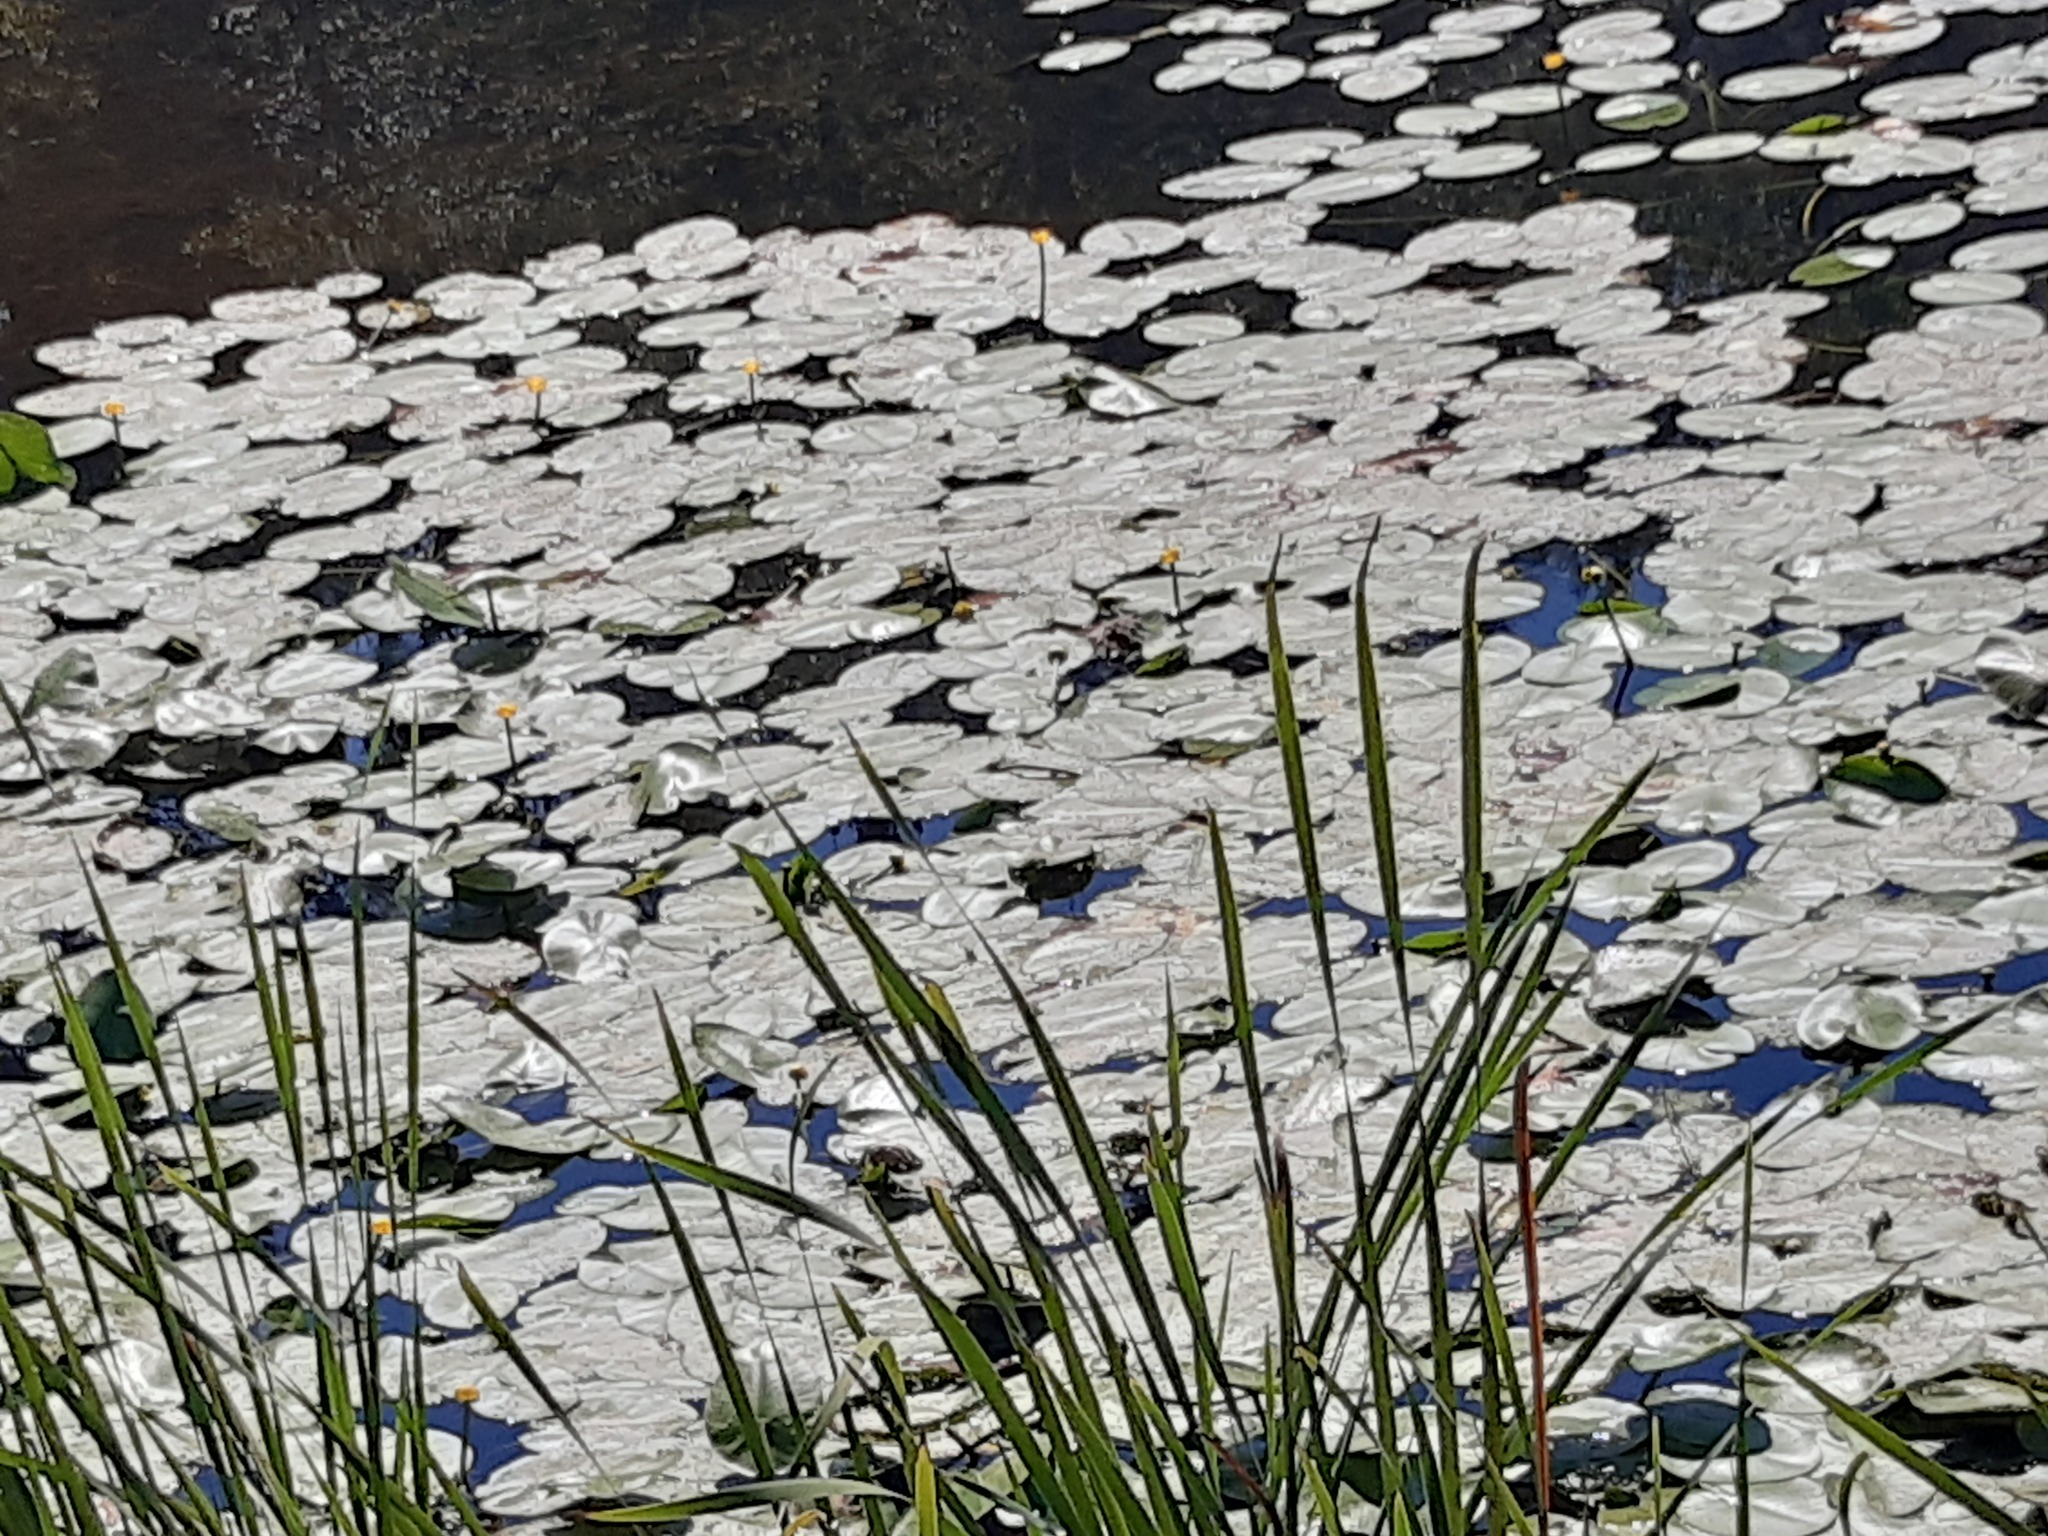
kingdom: Plantae
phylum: Tracheophyta
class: Magnoliopsida
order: Nymphaeales
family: Nymphaeaceae
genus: Nuphar
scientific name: Nuphar lutea
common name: Yellow water-lily
